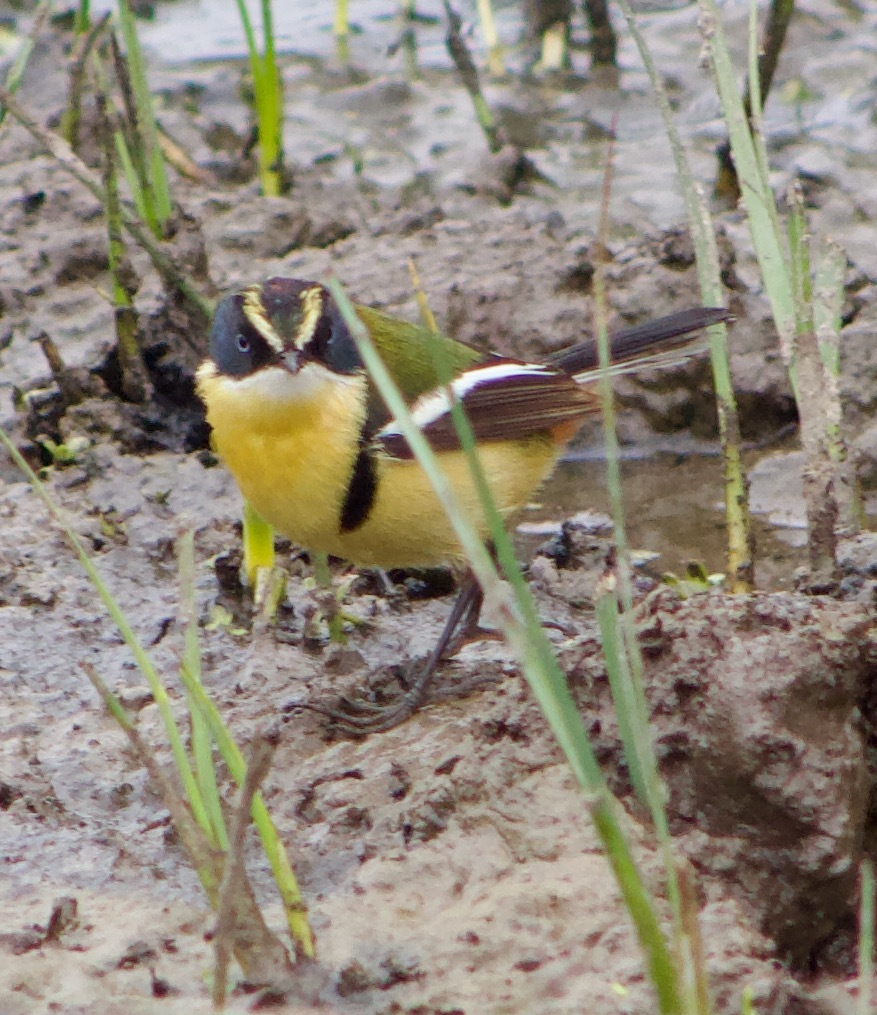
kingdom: Animalia
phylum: Chordata
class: Aves
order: Passeriformes
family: Tyrannidae
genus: Tachuris
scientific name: Tachuris rubrigastra
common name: Many-colored rush tyrant
